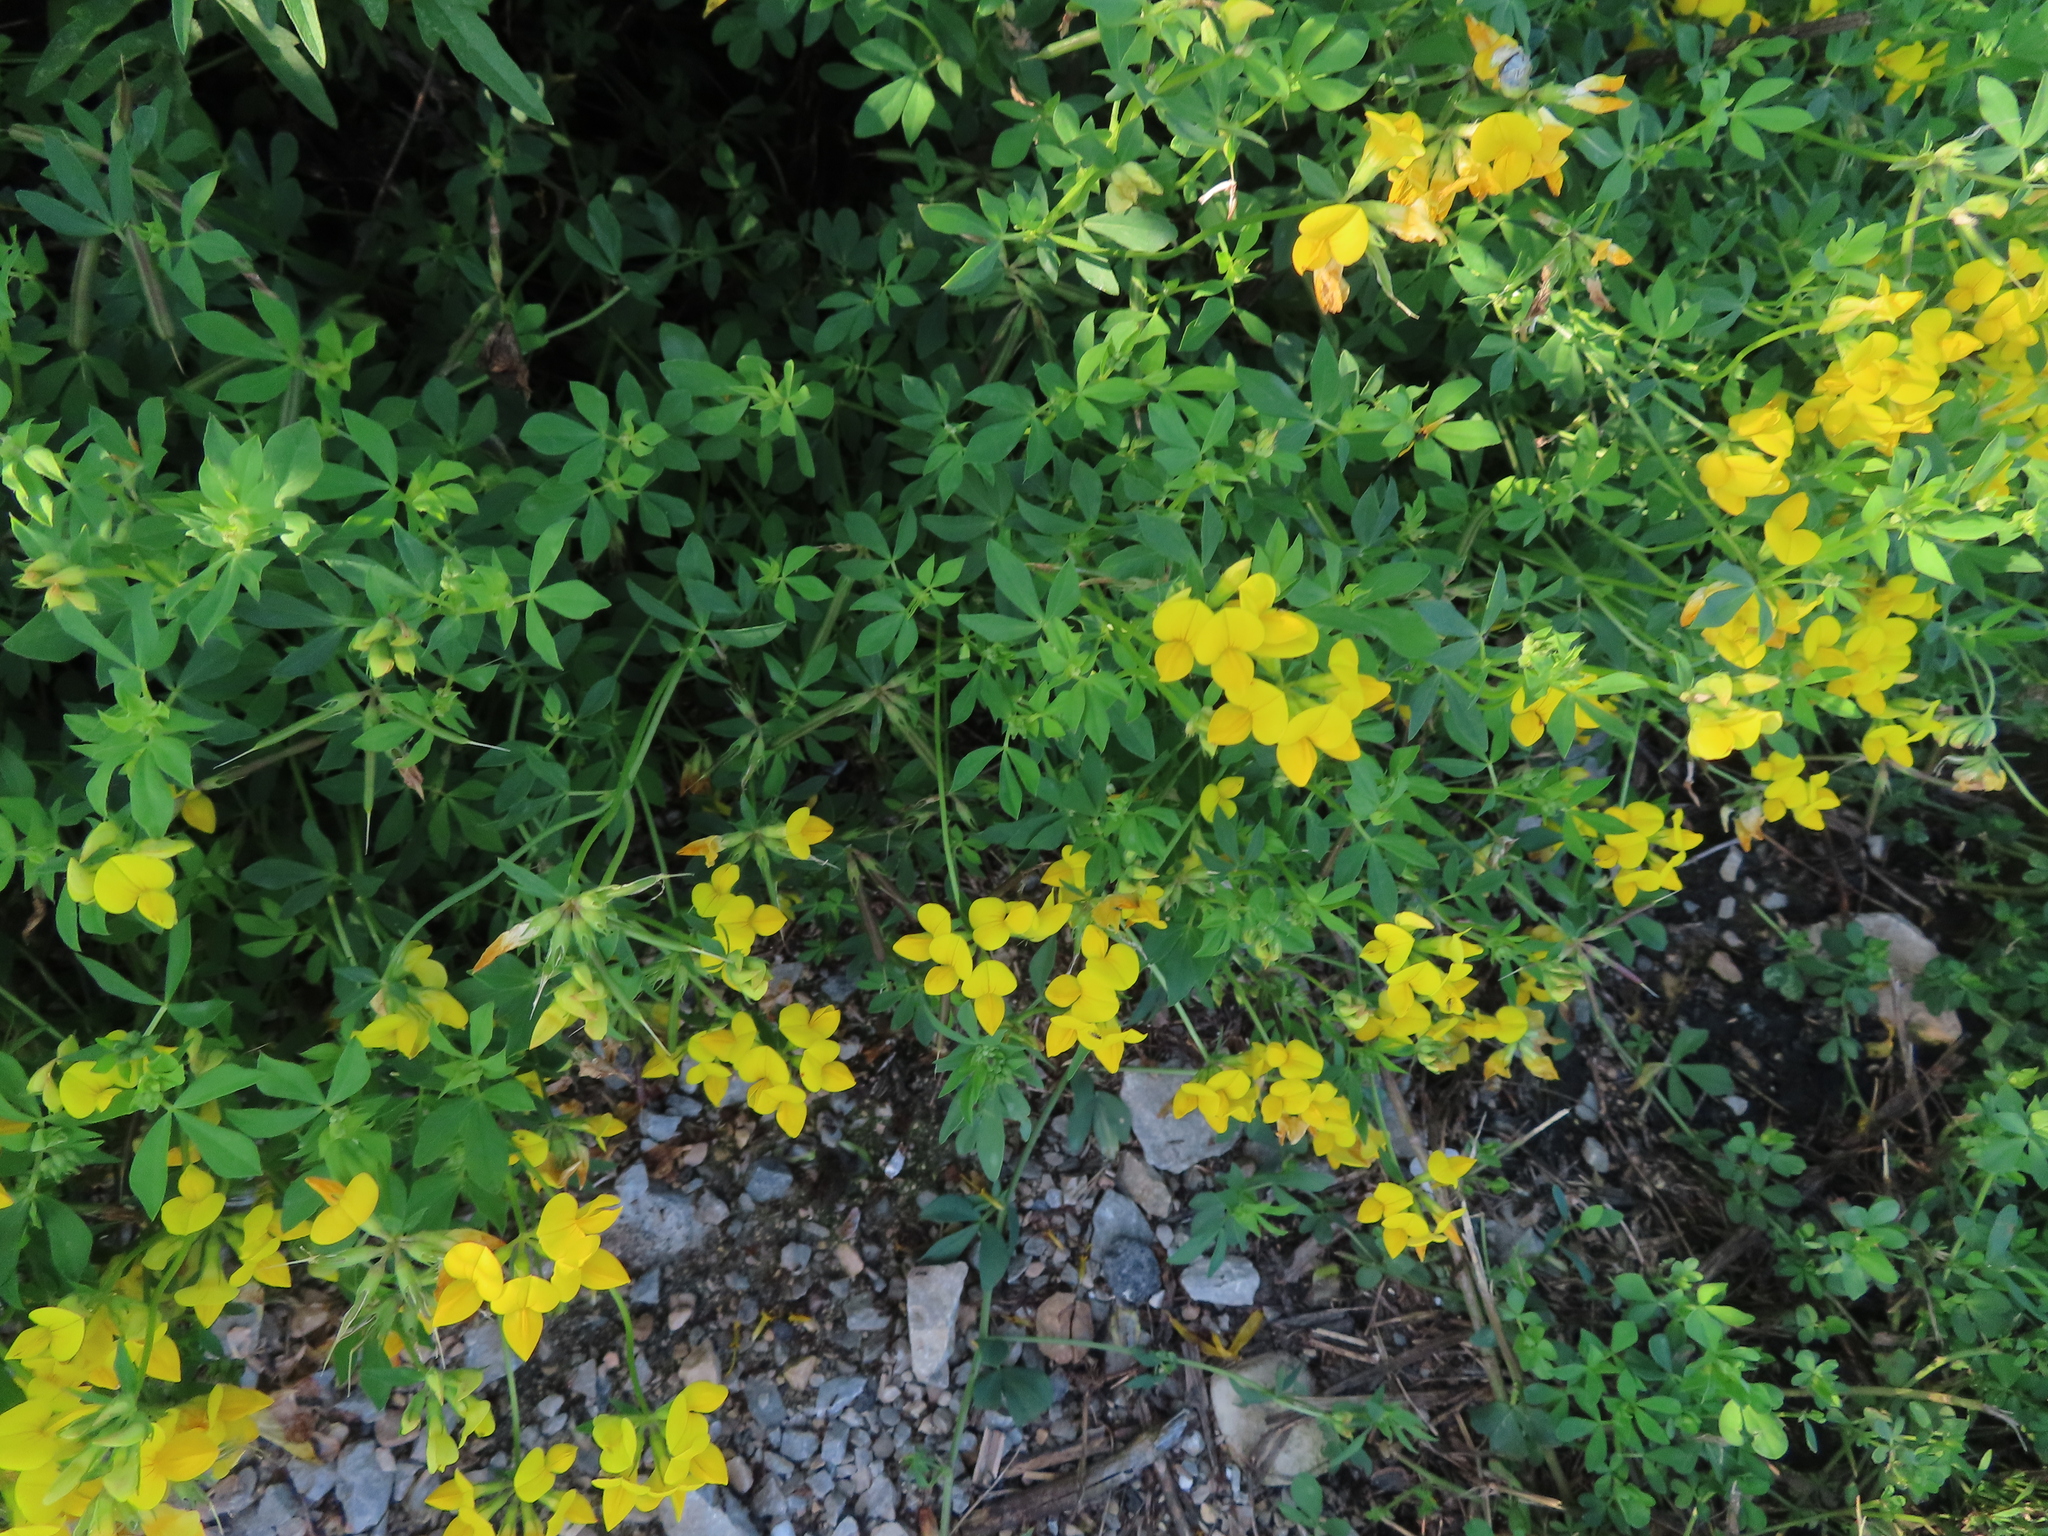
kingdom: Plantae
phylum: Tracheophyta
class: Magnoliopsida
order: Fabales
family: Fabaceae
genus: Lotus
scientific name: Lotus corniculatus
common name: Common bird's-foot-trefoil
